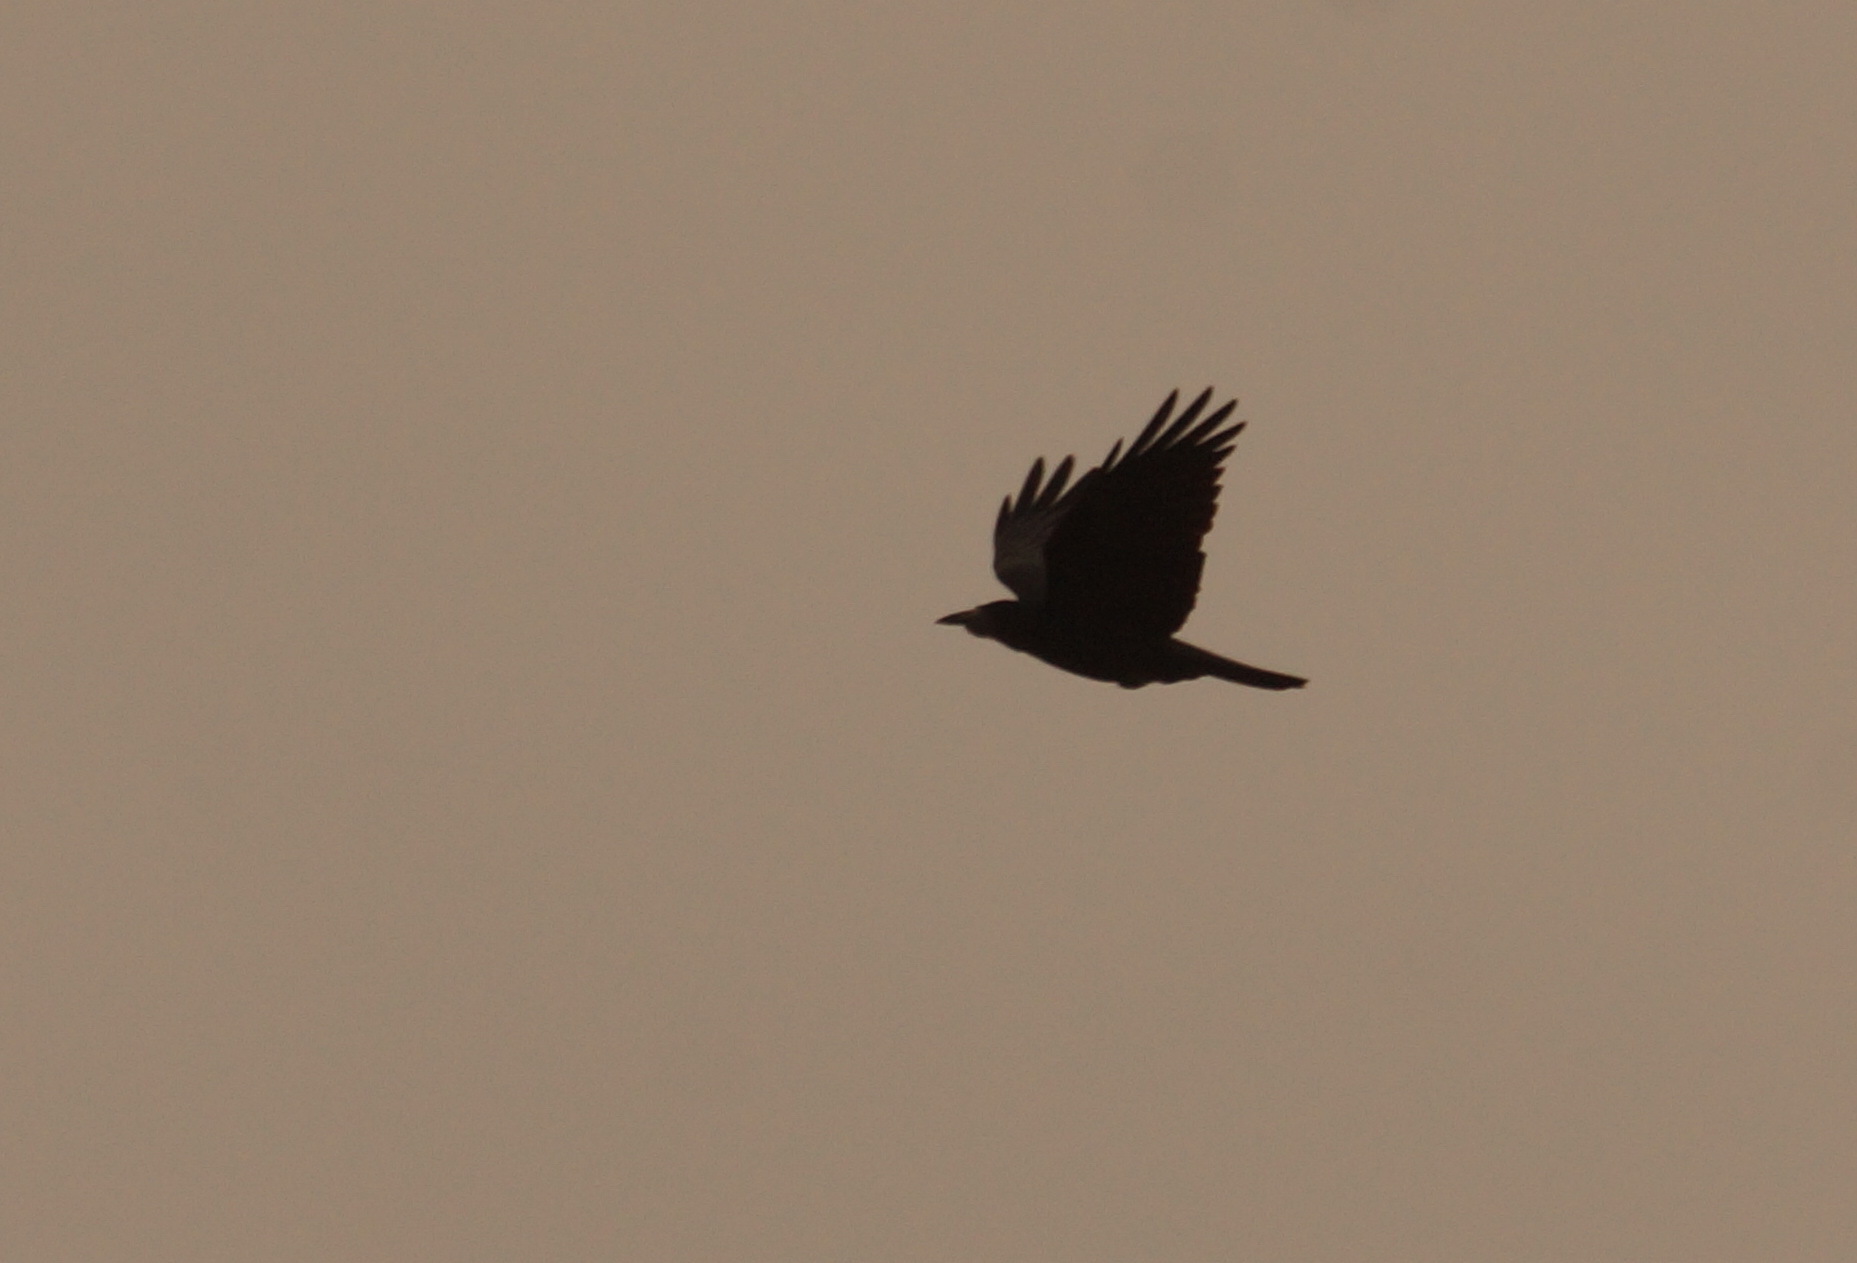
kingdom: Animalia
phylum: Chordata
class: Aves
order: Passeriformes
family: Corvidae
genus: Corvus
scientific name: Corvus frugilegus
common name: Rook
